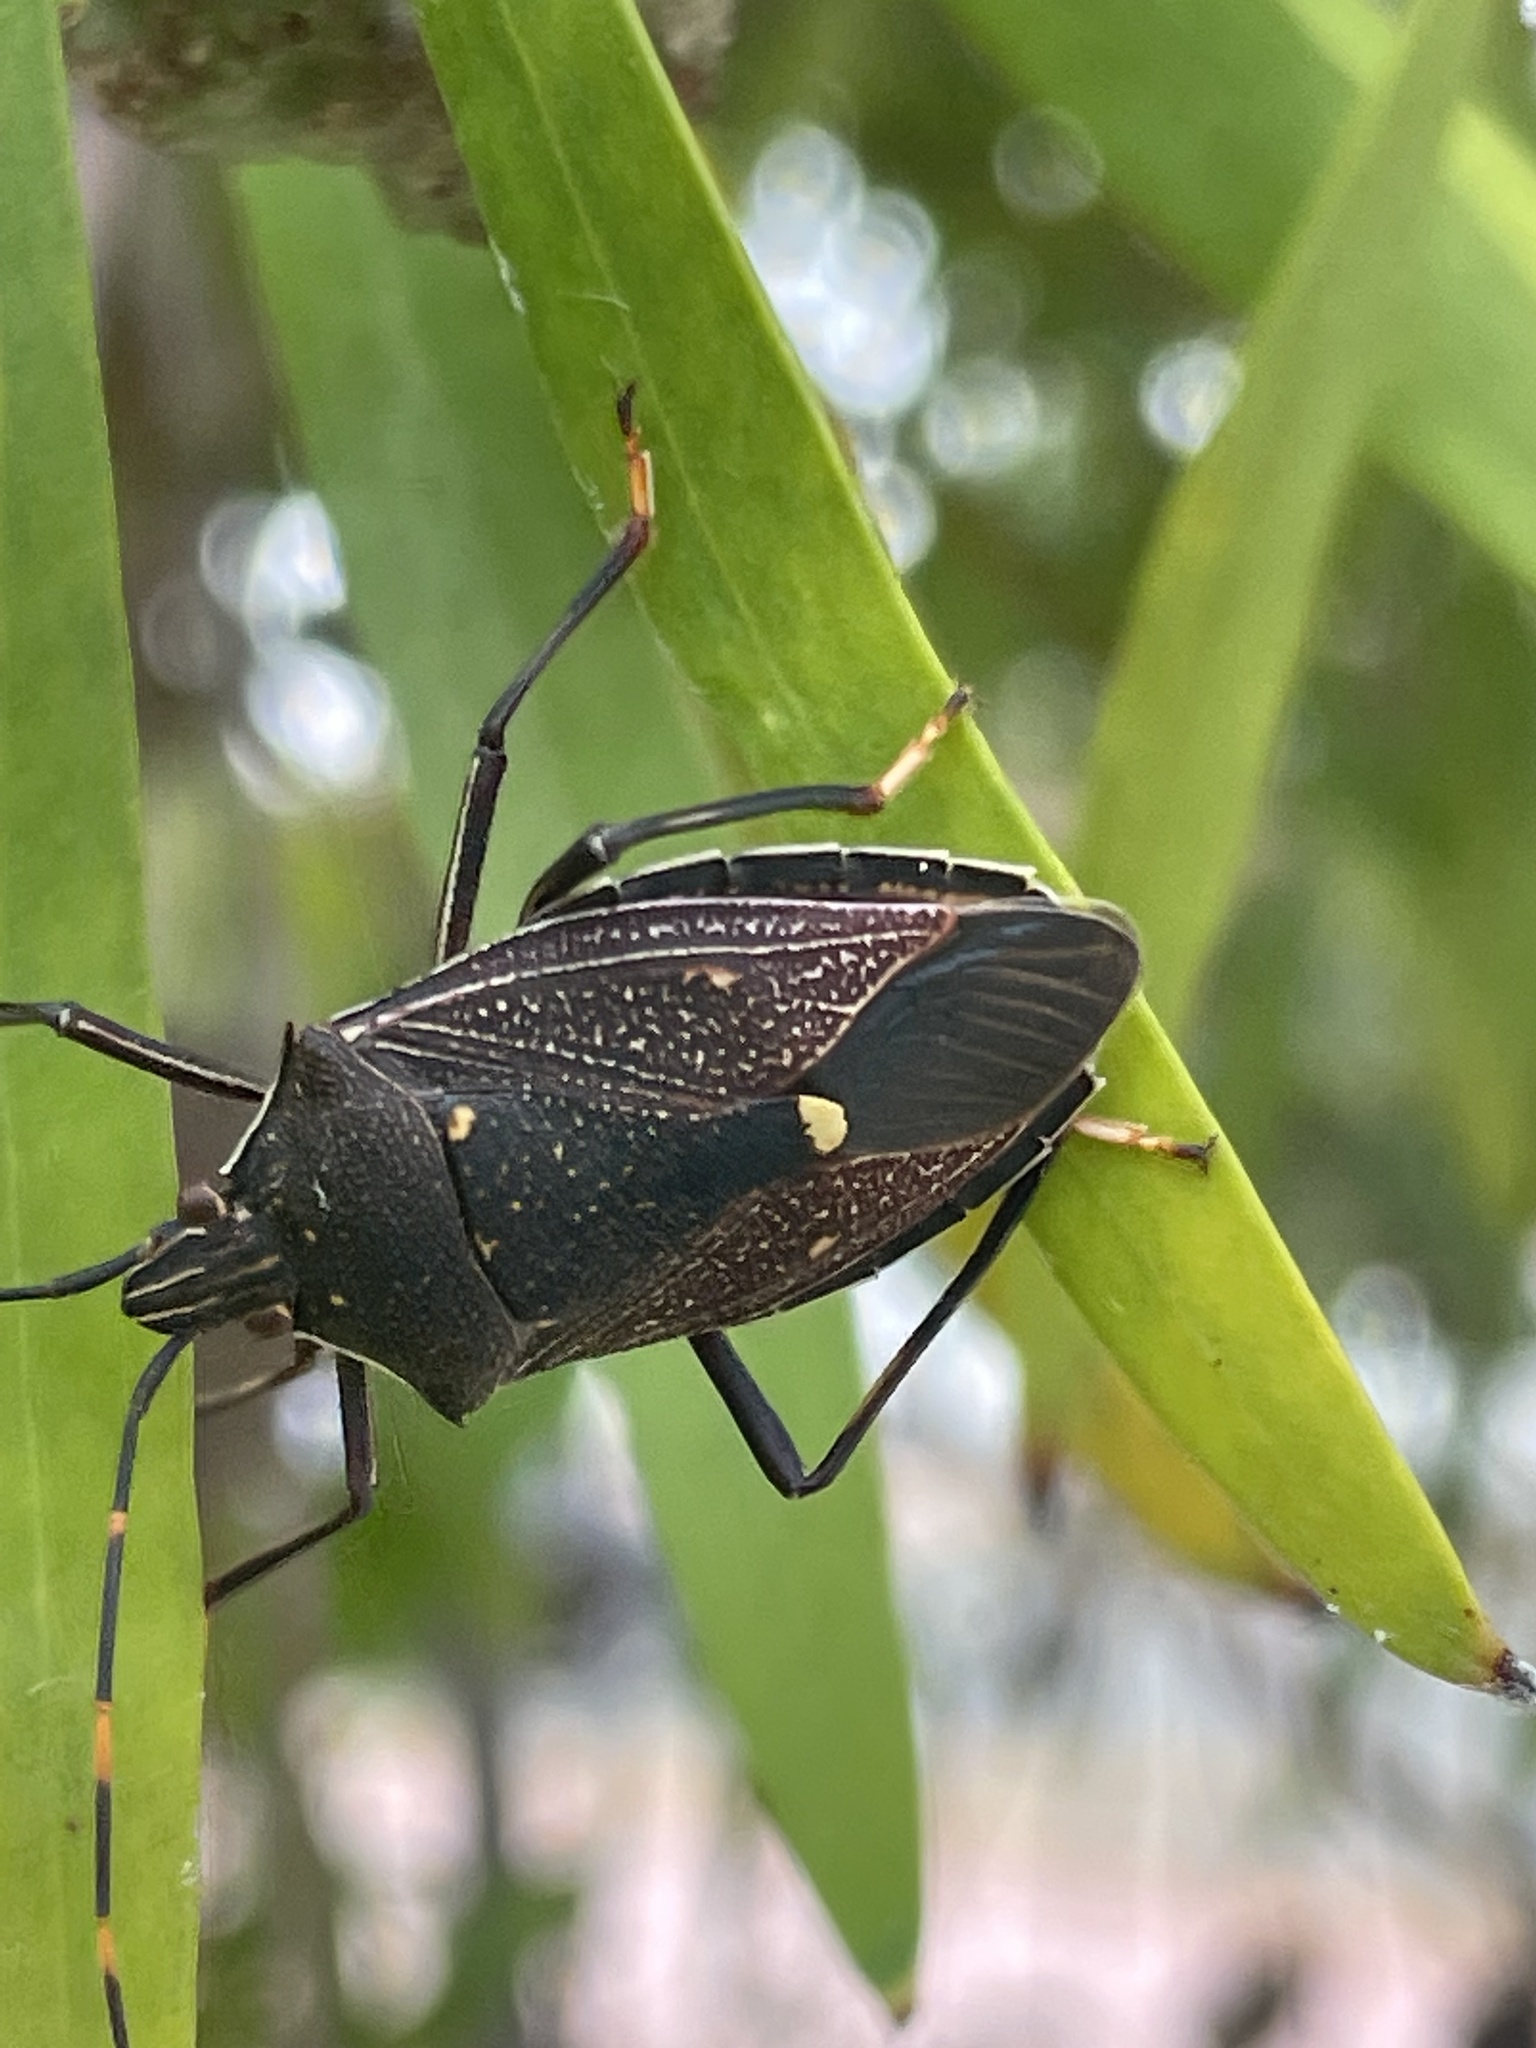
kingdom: Animalia
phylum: Arthropoda
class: Insecta
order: Hemiptera
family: Pentatomidae
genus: Poecilometis
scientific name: Poecilometis
